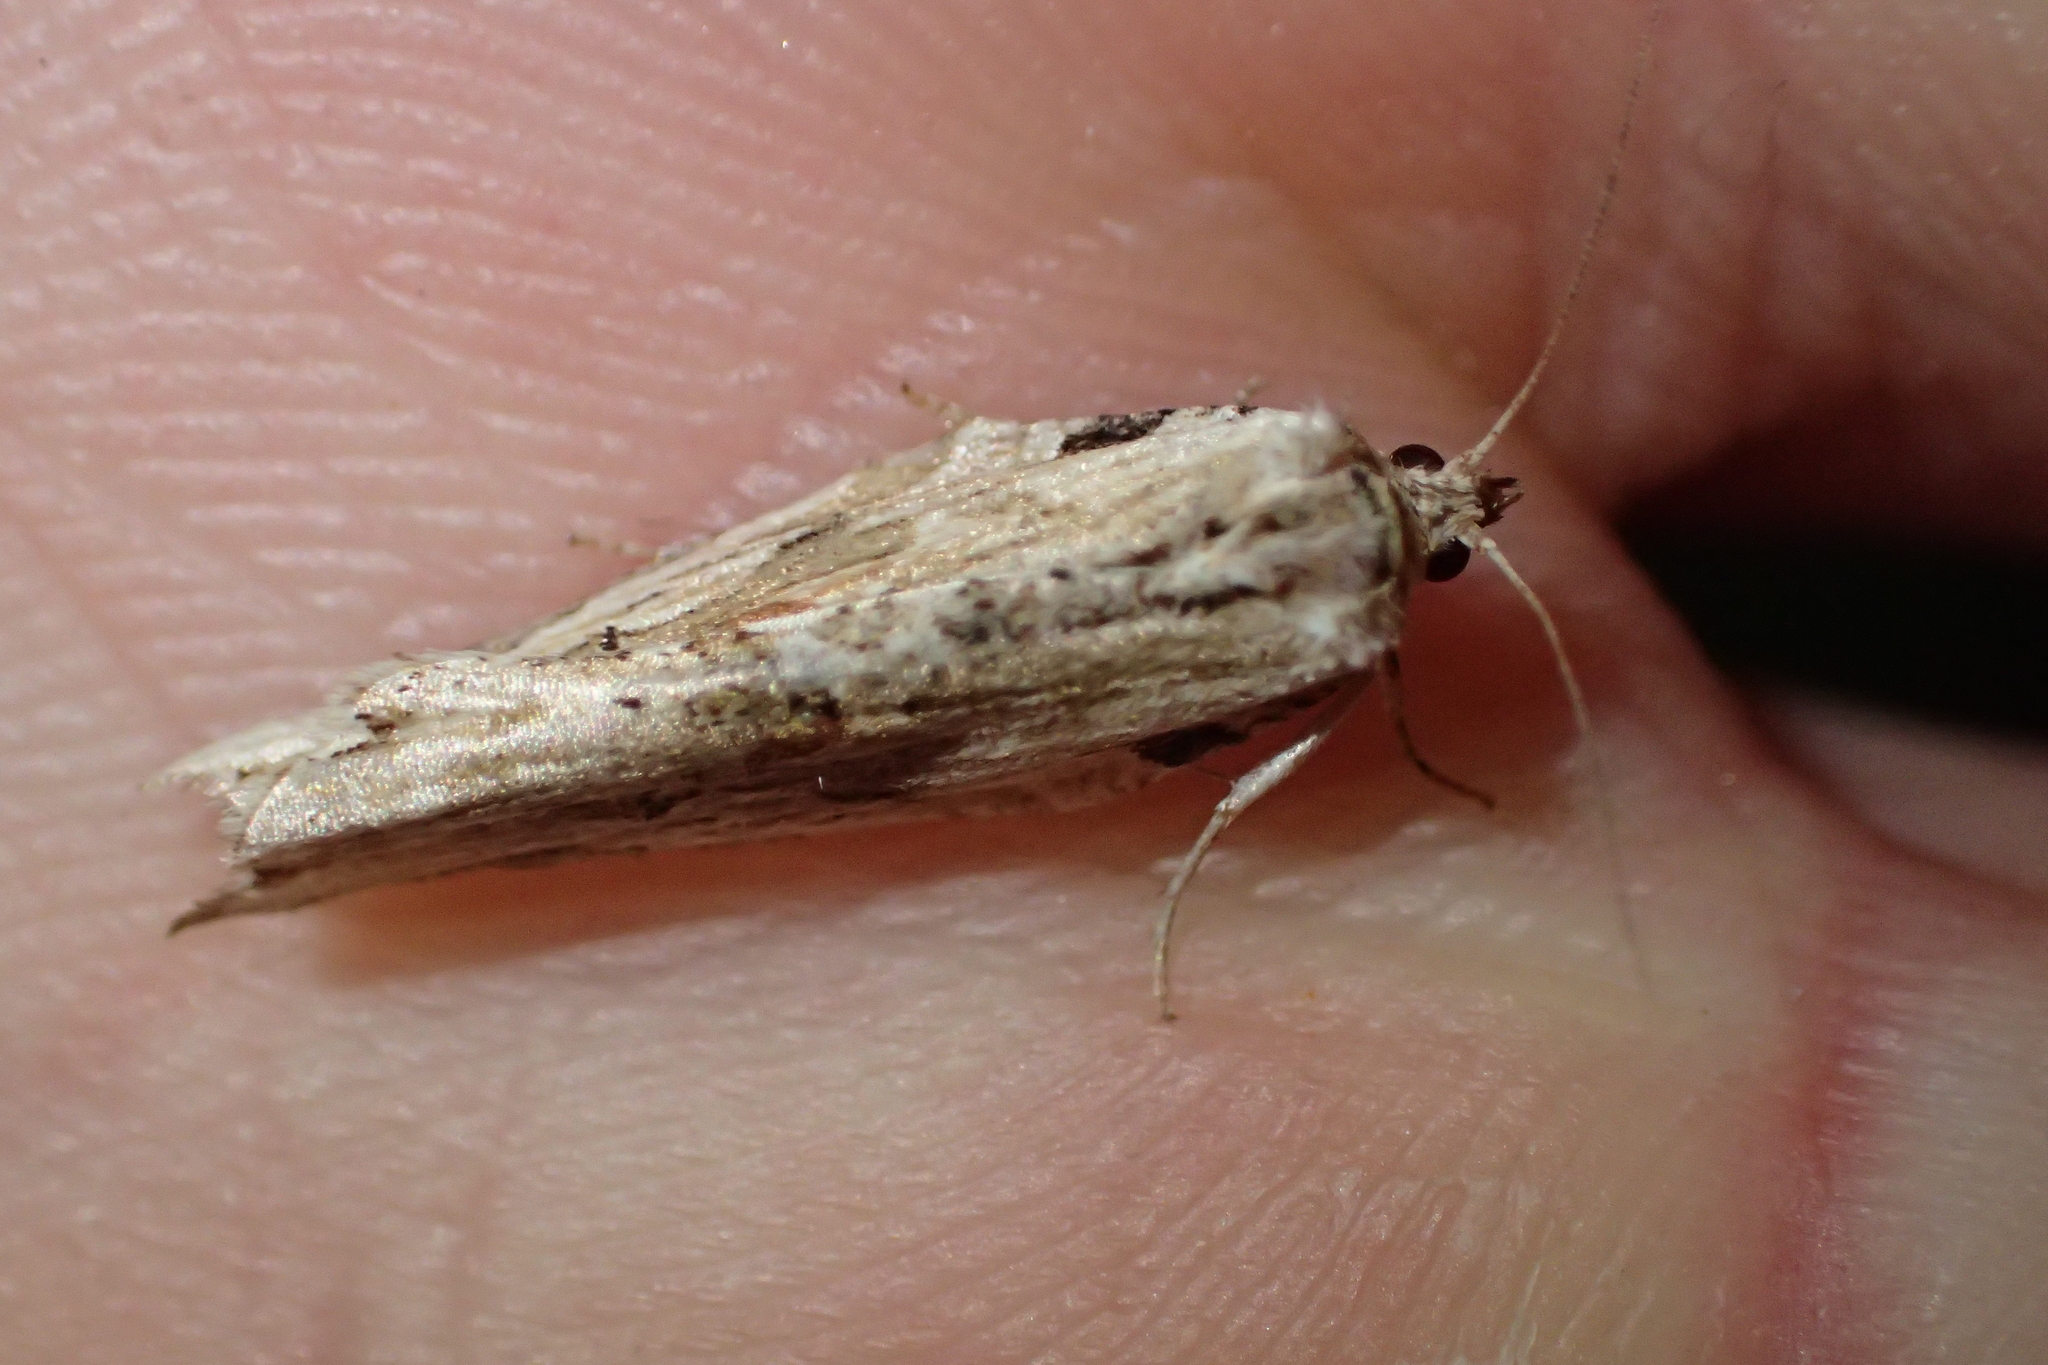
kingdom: Animalia
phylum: Arthropoda
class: Insecta
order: Lepidoptera
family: Tortricidae
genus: Epalxiphora
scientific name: Epalxiphora axenana
